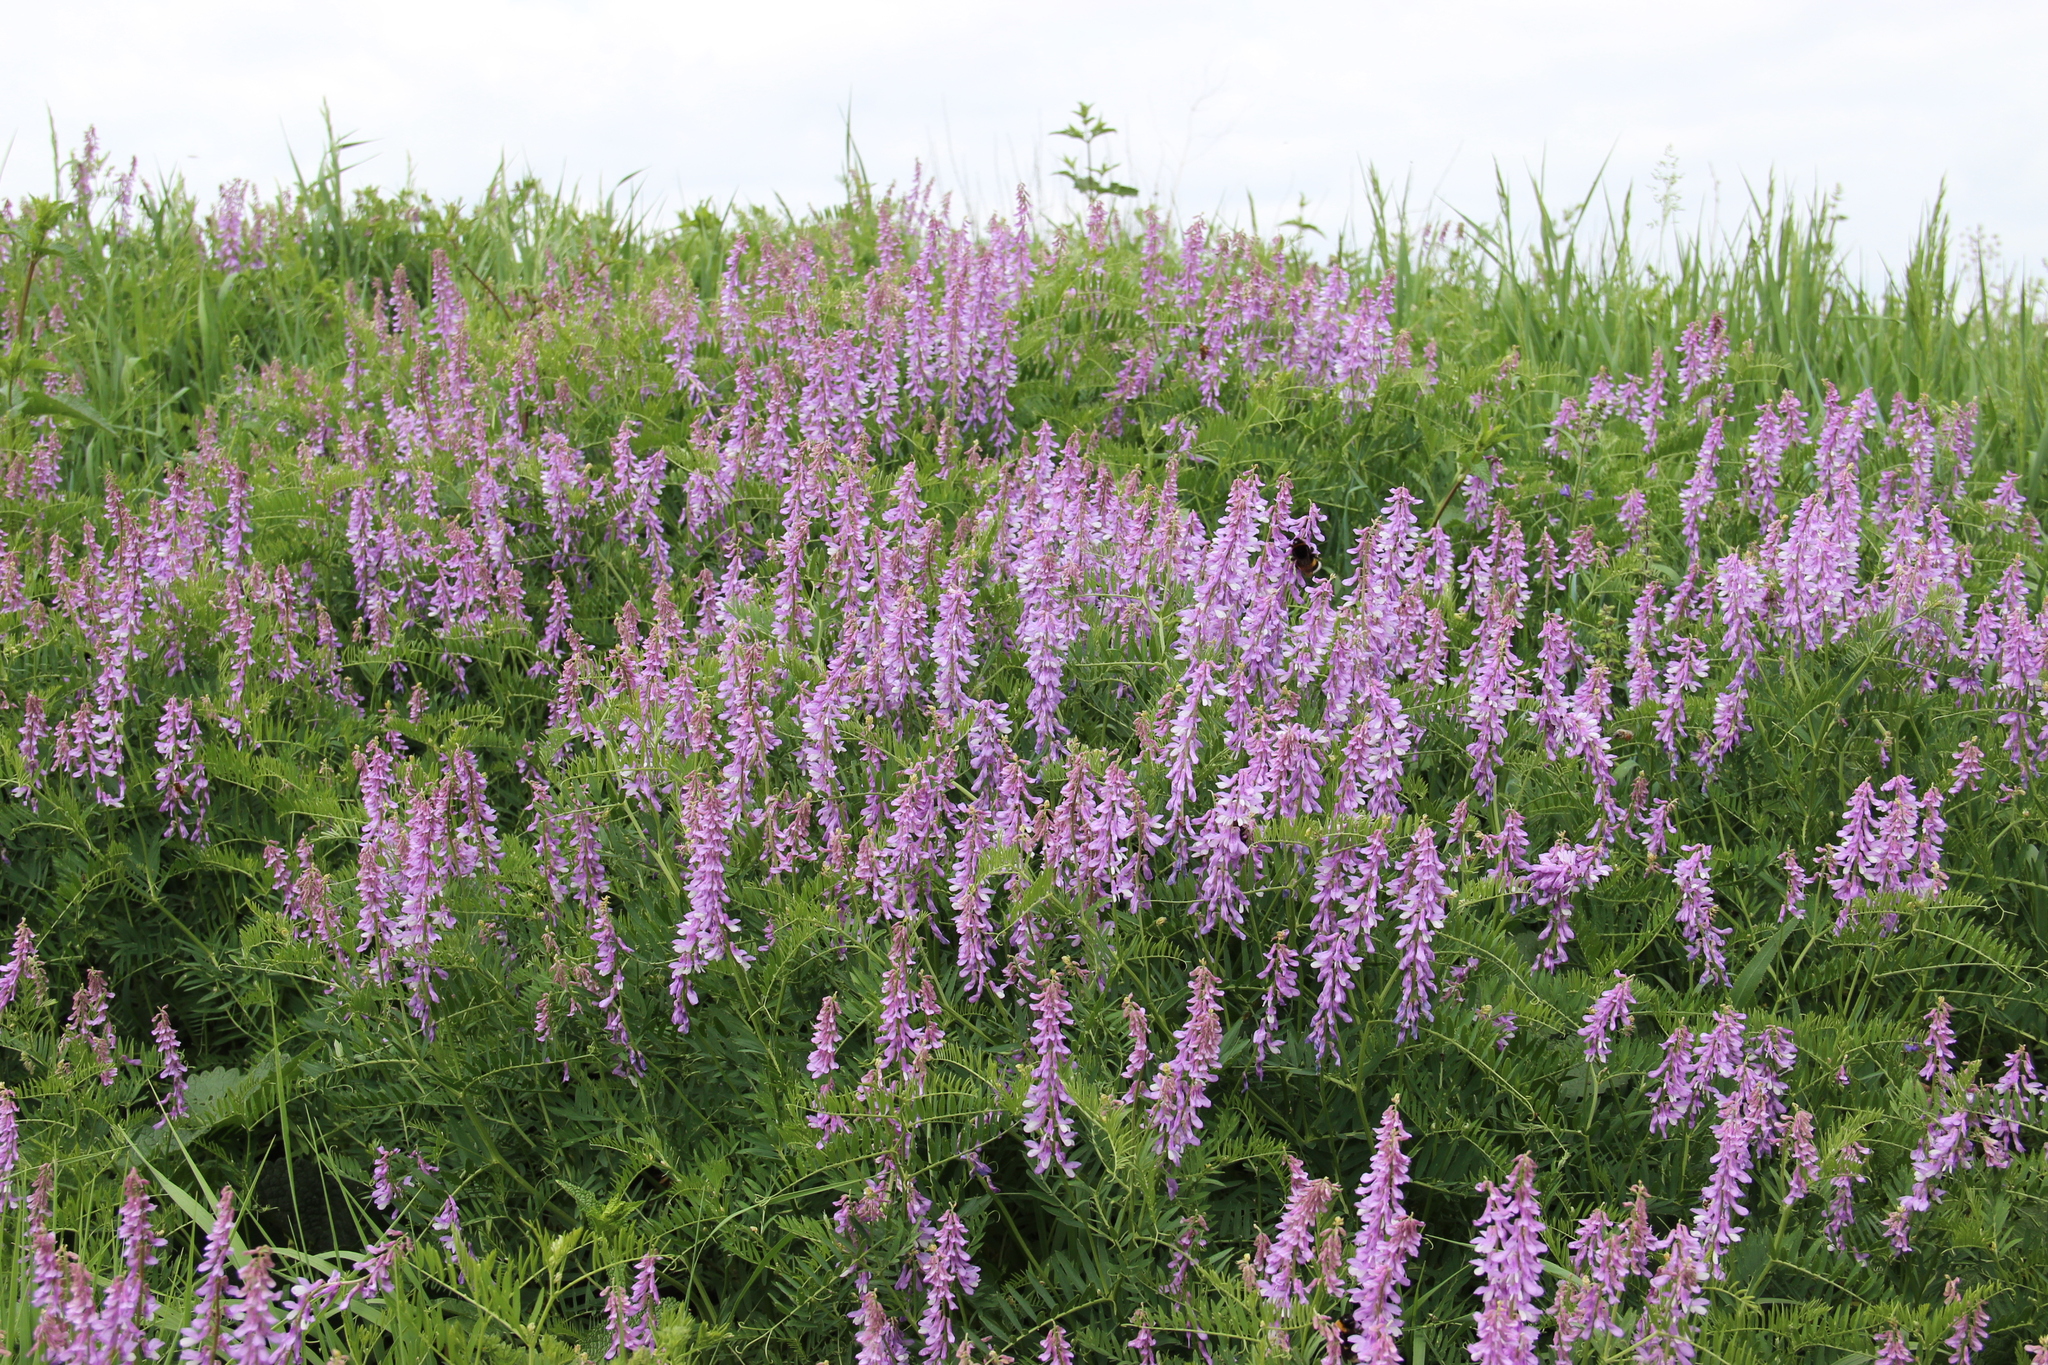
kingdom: Plantae
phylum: Tracheophyta
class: Magnoliopsida
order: Fabales
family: Fabaceae
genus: Vicia
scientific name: Vicia tenuifolia
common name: Fine-leaved vetch
